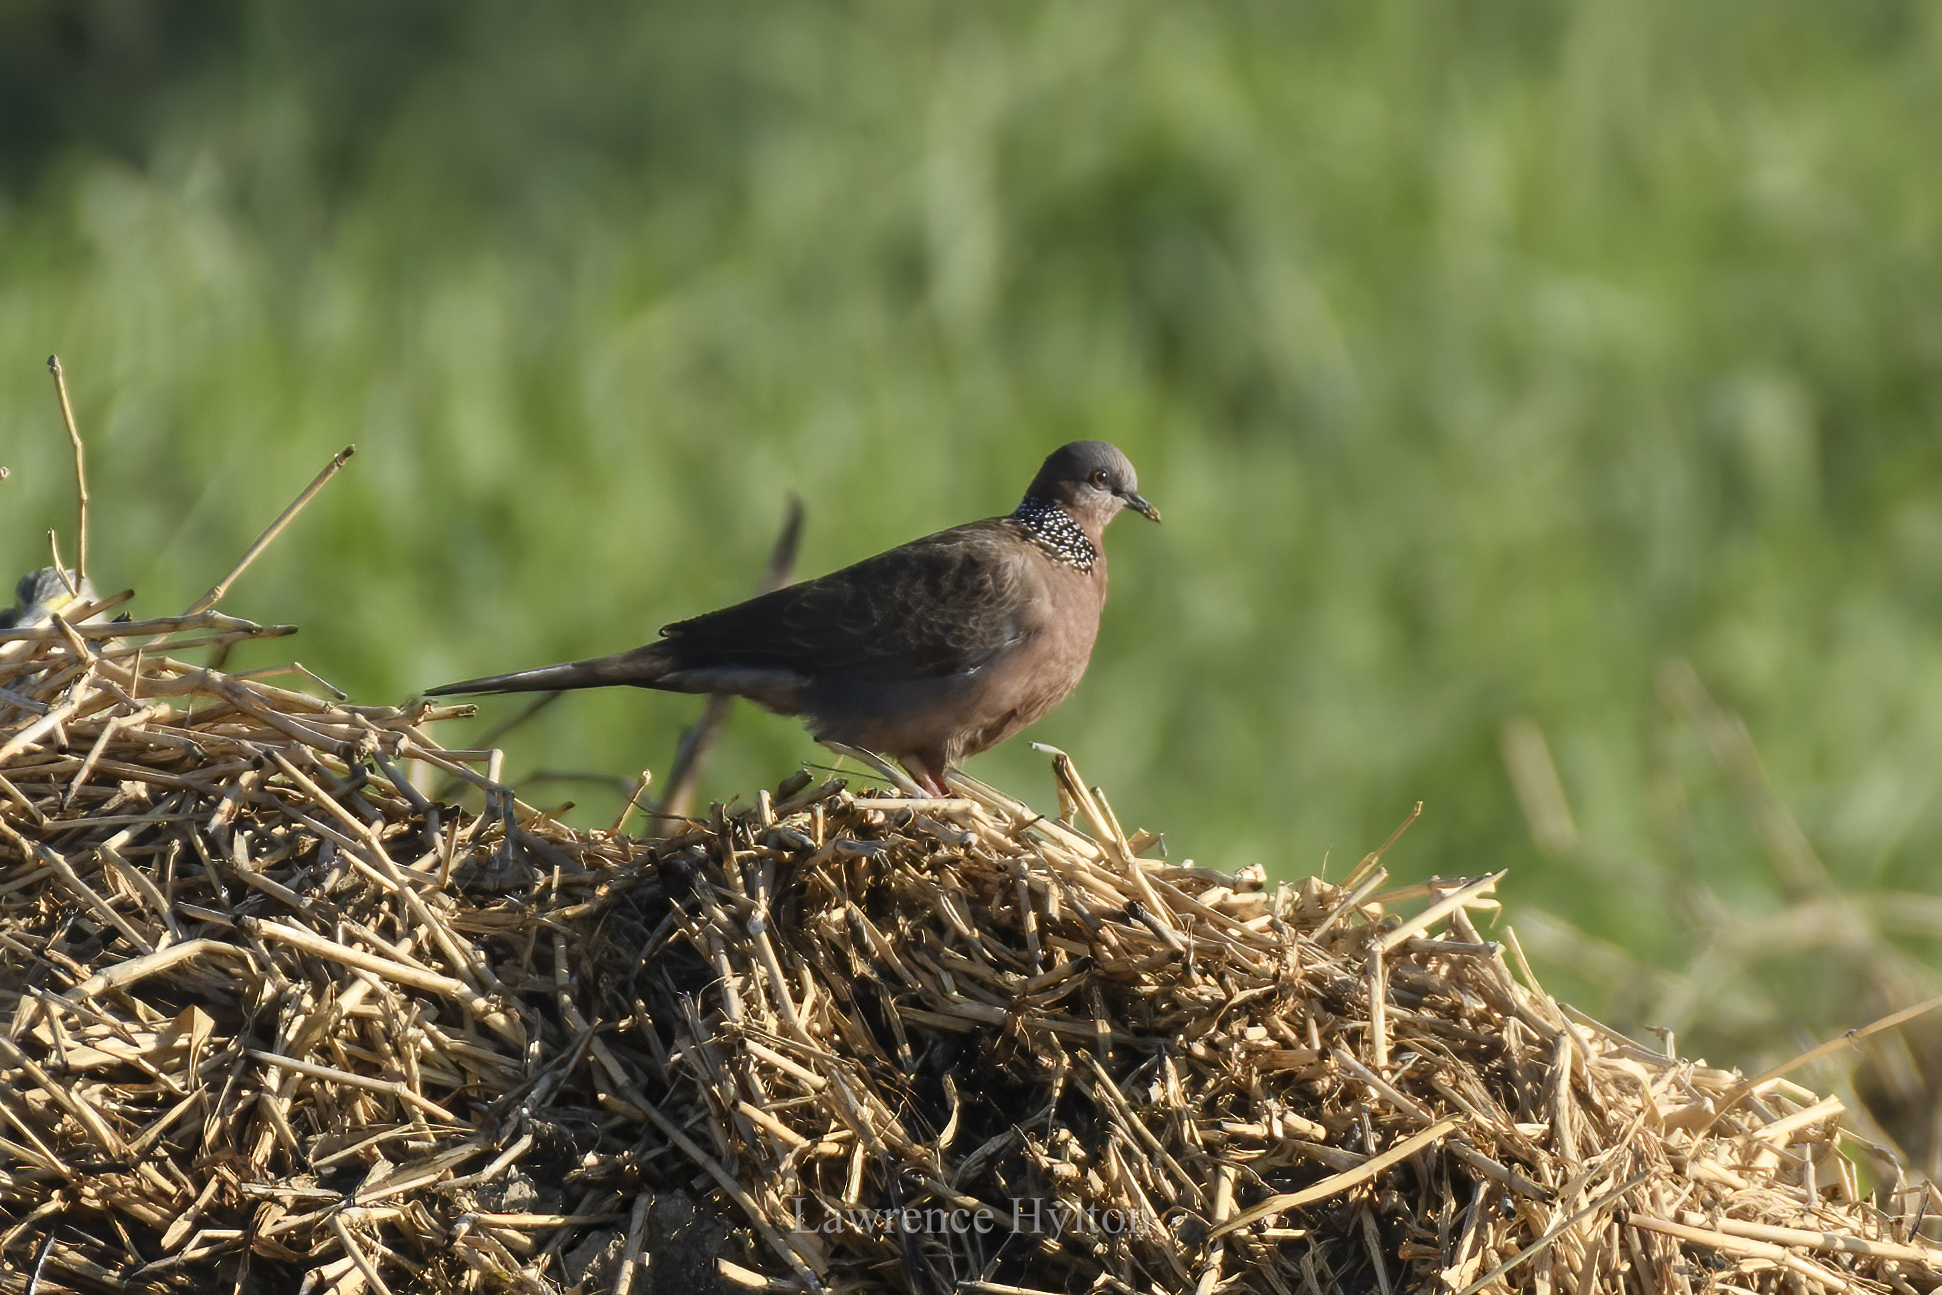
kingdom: Animalia
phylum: Chordata
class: Aves
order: Columbiformes
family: Columbidae
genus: Spilopelia
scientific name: Spilopelia chinensis
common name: Spotted dove
